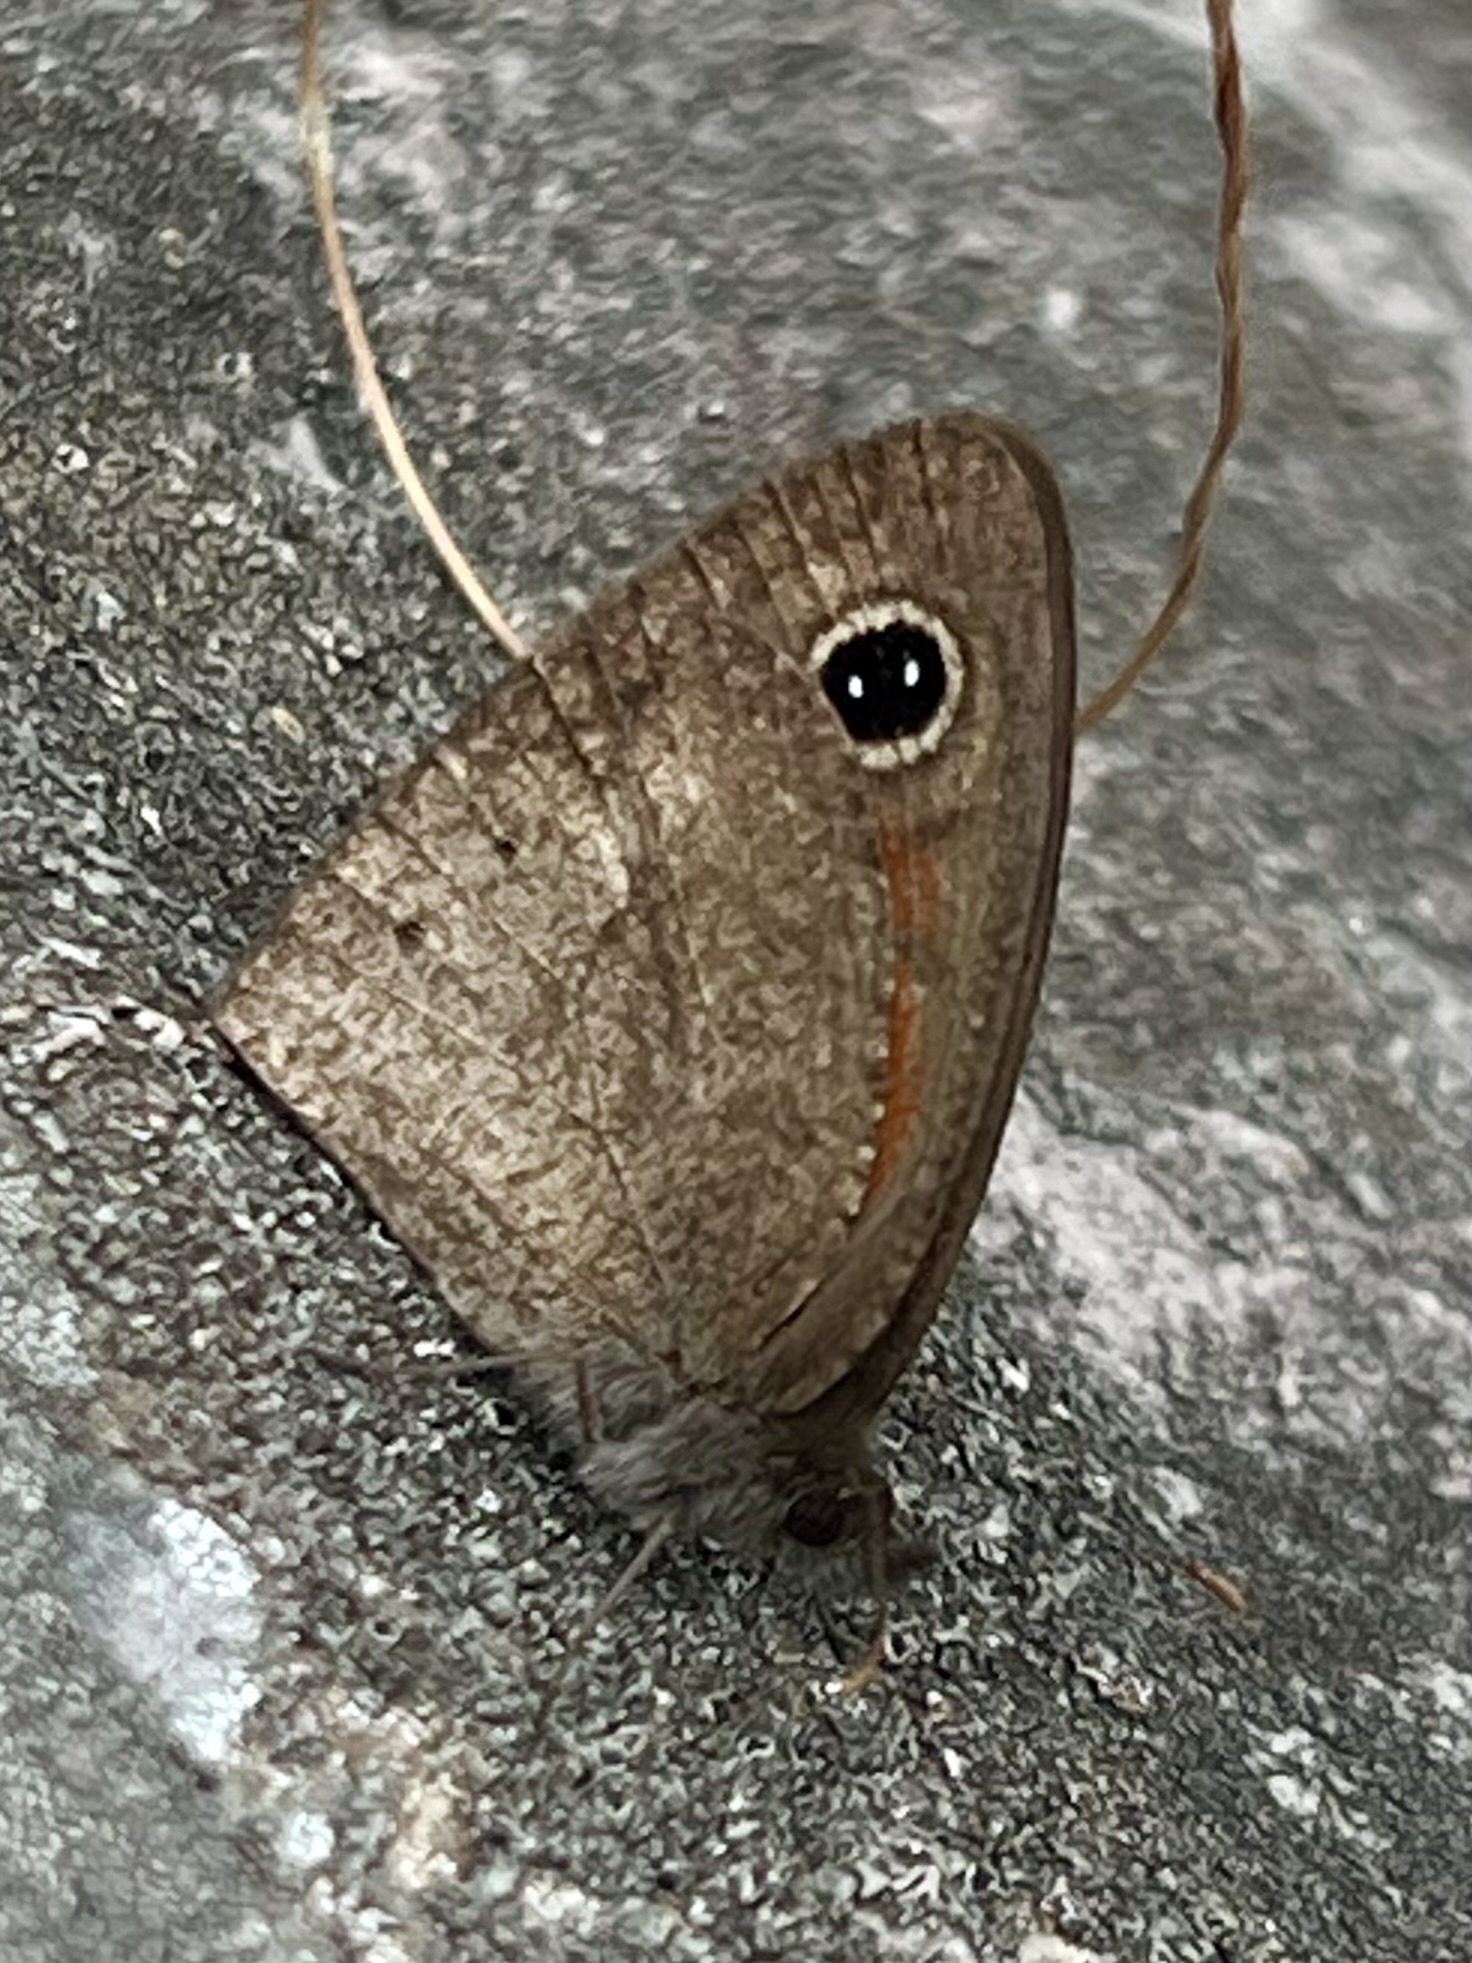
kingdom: Animalia
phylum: Arthropoda
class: Insecta
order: Lepidoptera
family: Nymphalidae
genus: Stygionympha
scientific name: Stygionympha vigilans
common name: Western hillside brown
